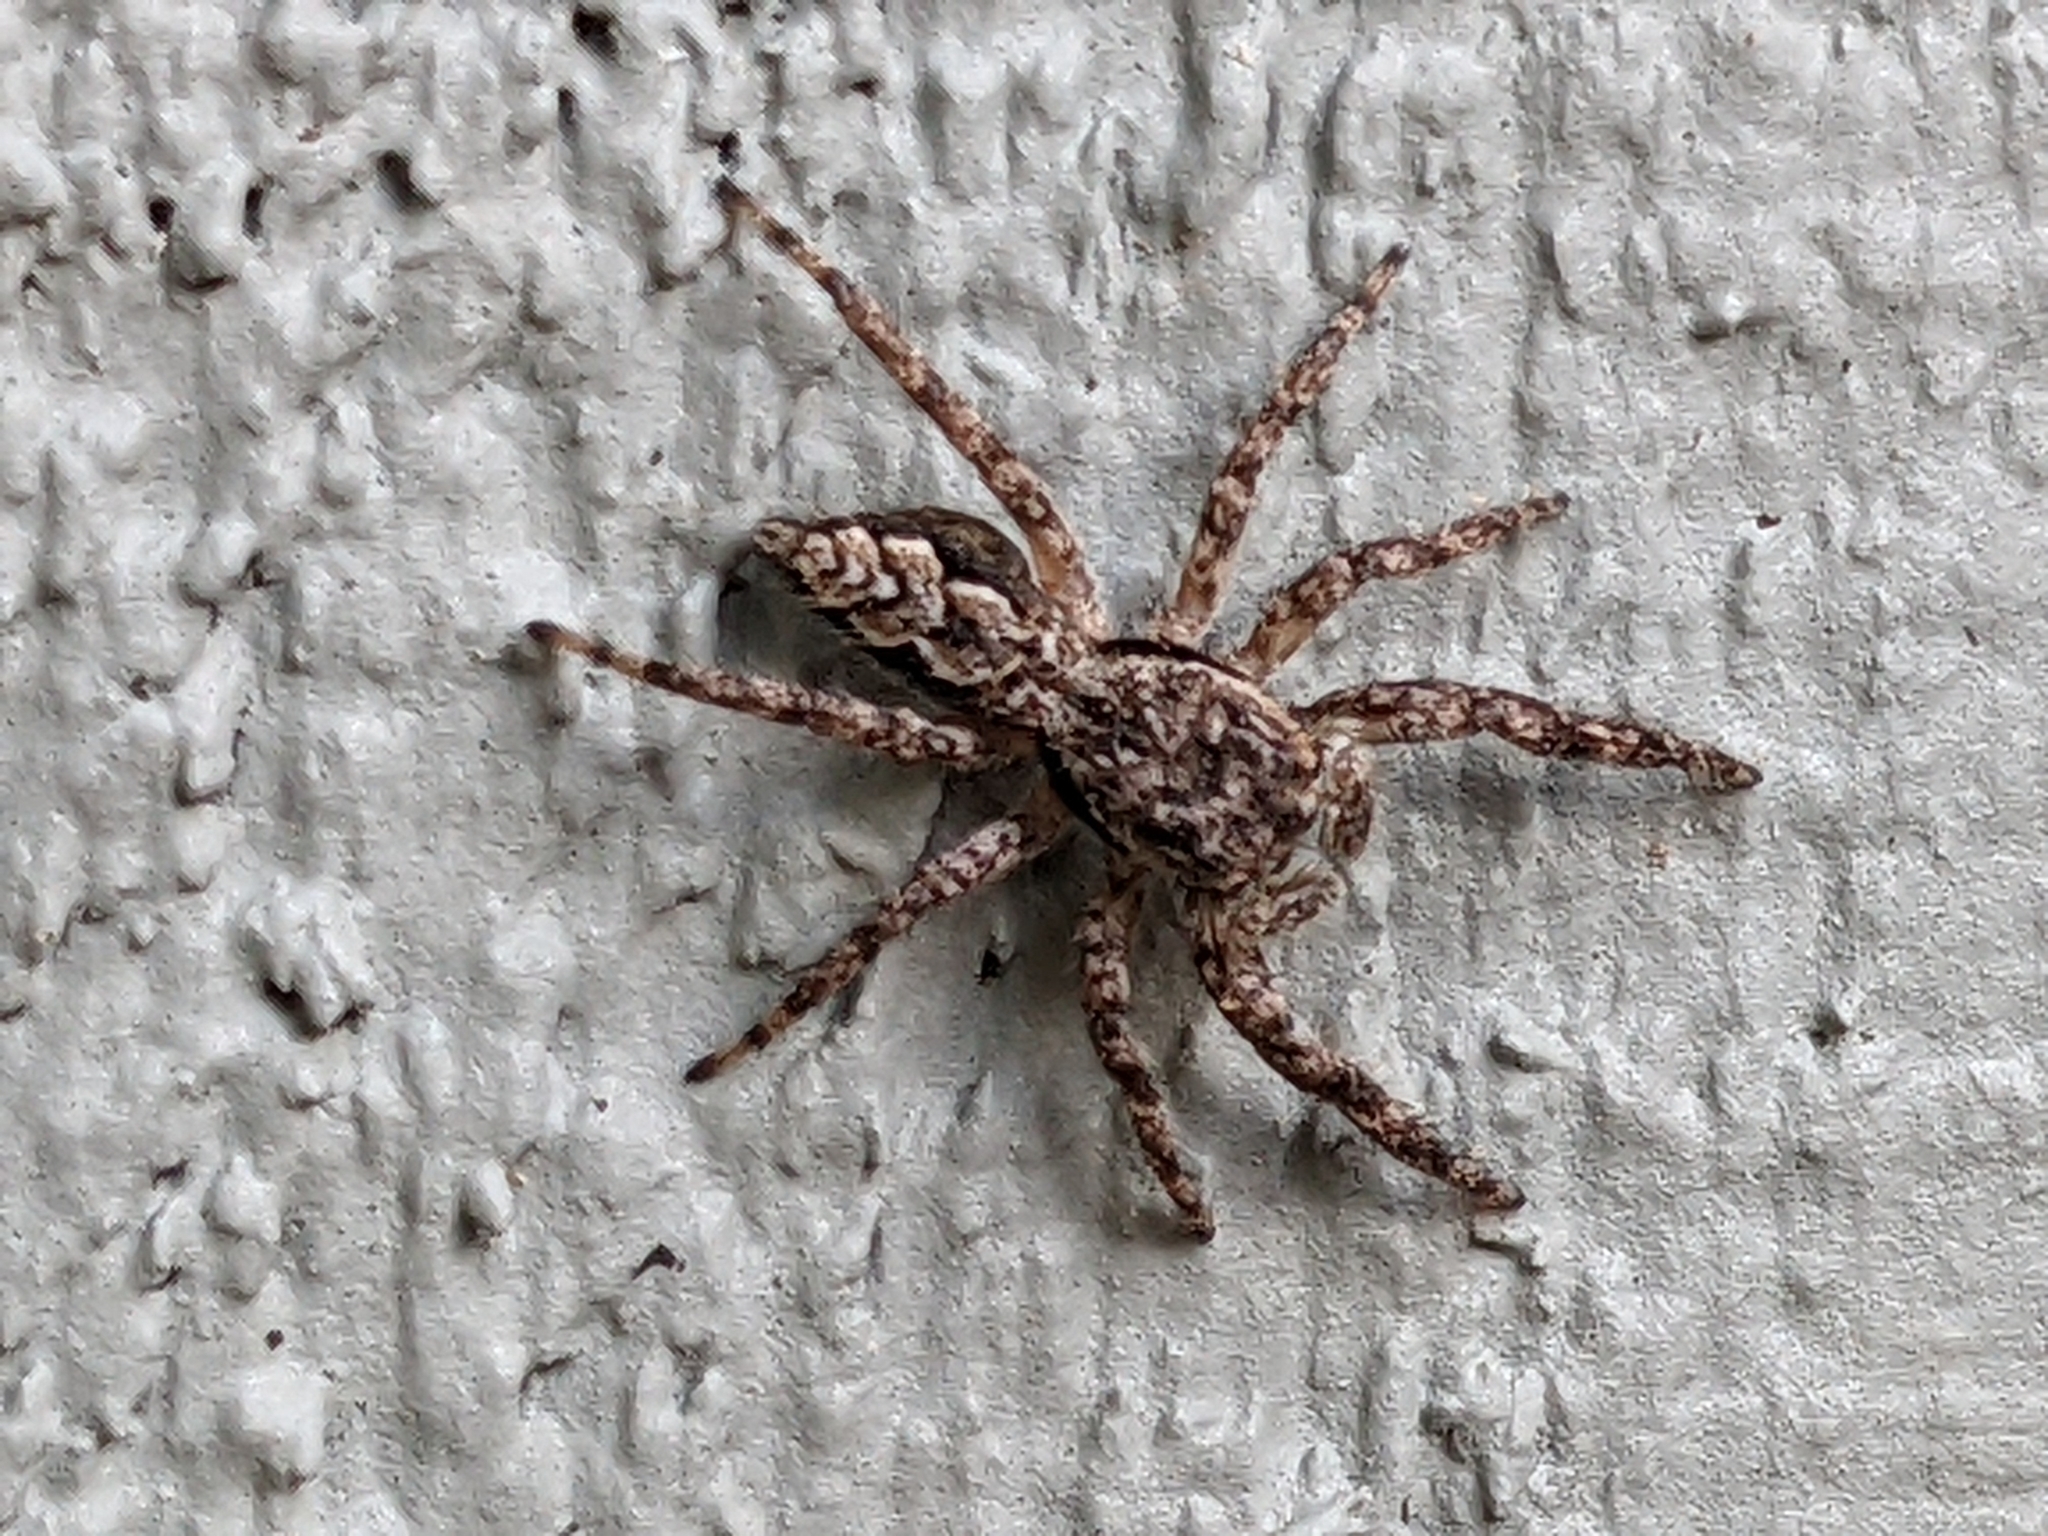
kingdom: Animalia
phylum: Arthropoda
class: Arachnida
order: Araneae
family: Salticidae
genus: Platycryptus
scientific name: Platycryptus undatus
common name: Tan jumping spider
